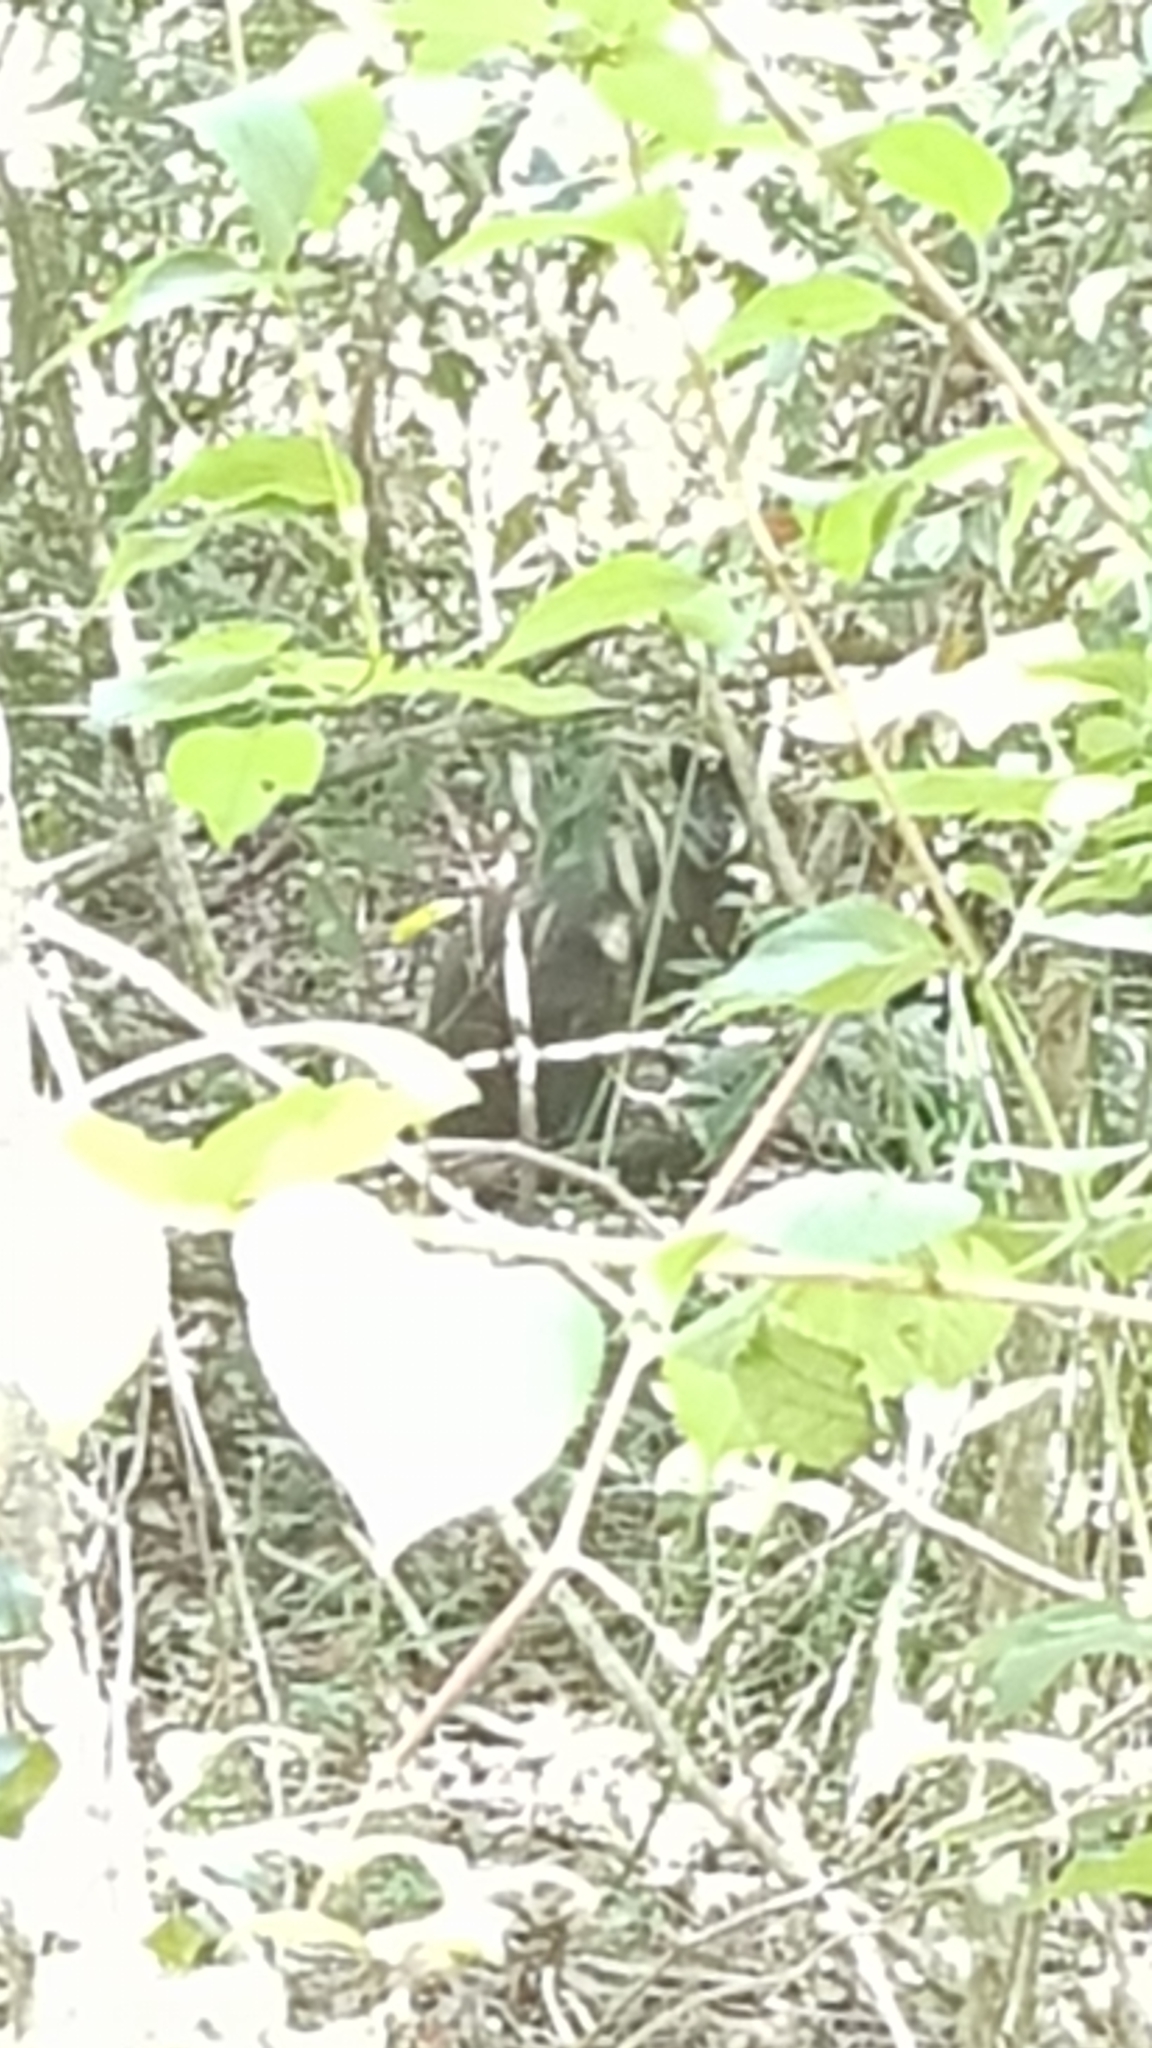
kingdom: Animalia
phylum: Chordata
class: Mammalia
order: Diprotodontia
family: Macropodidae
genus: Wallabia
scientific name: Wallabia bicolor
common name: Swamp wallaby
